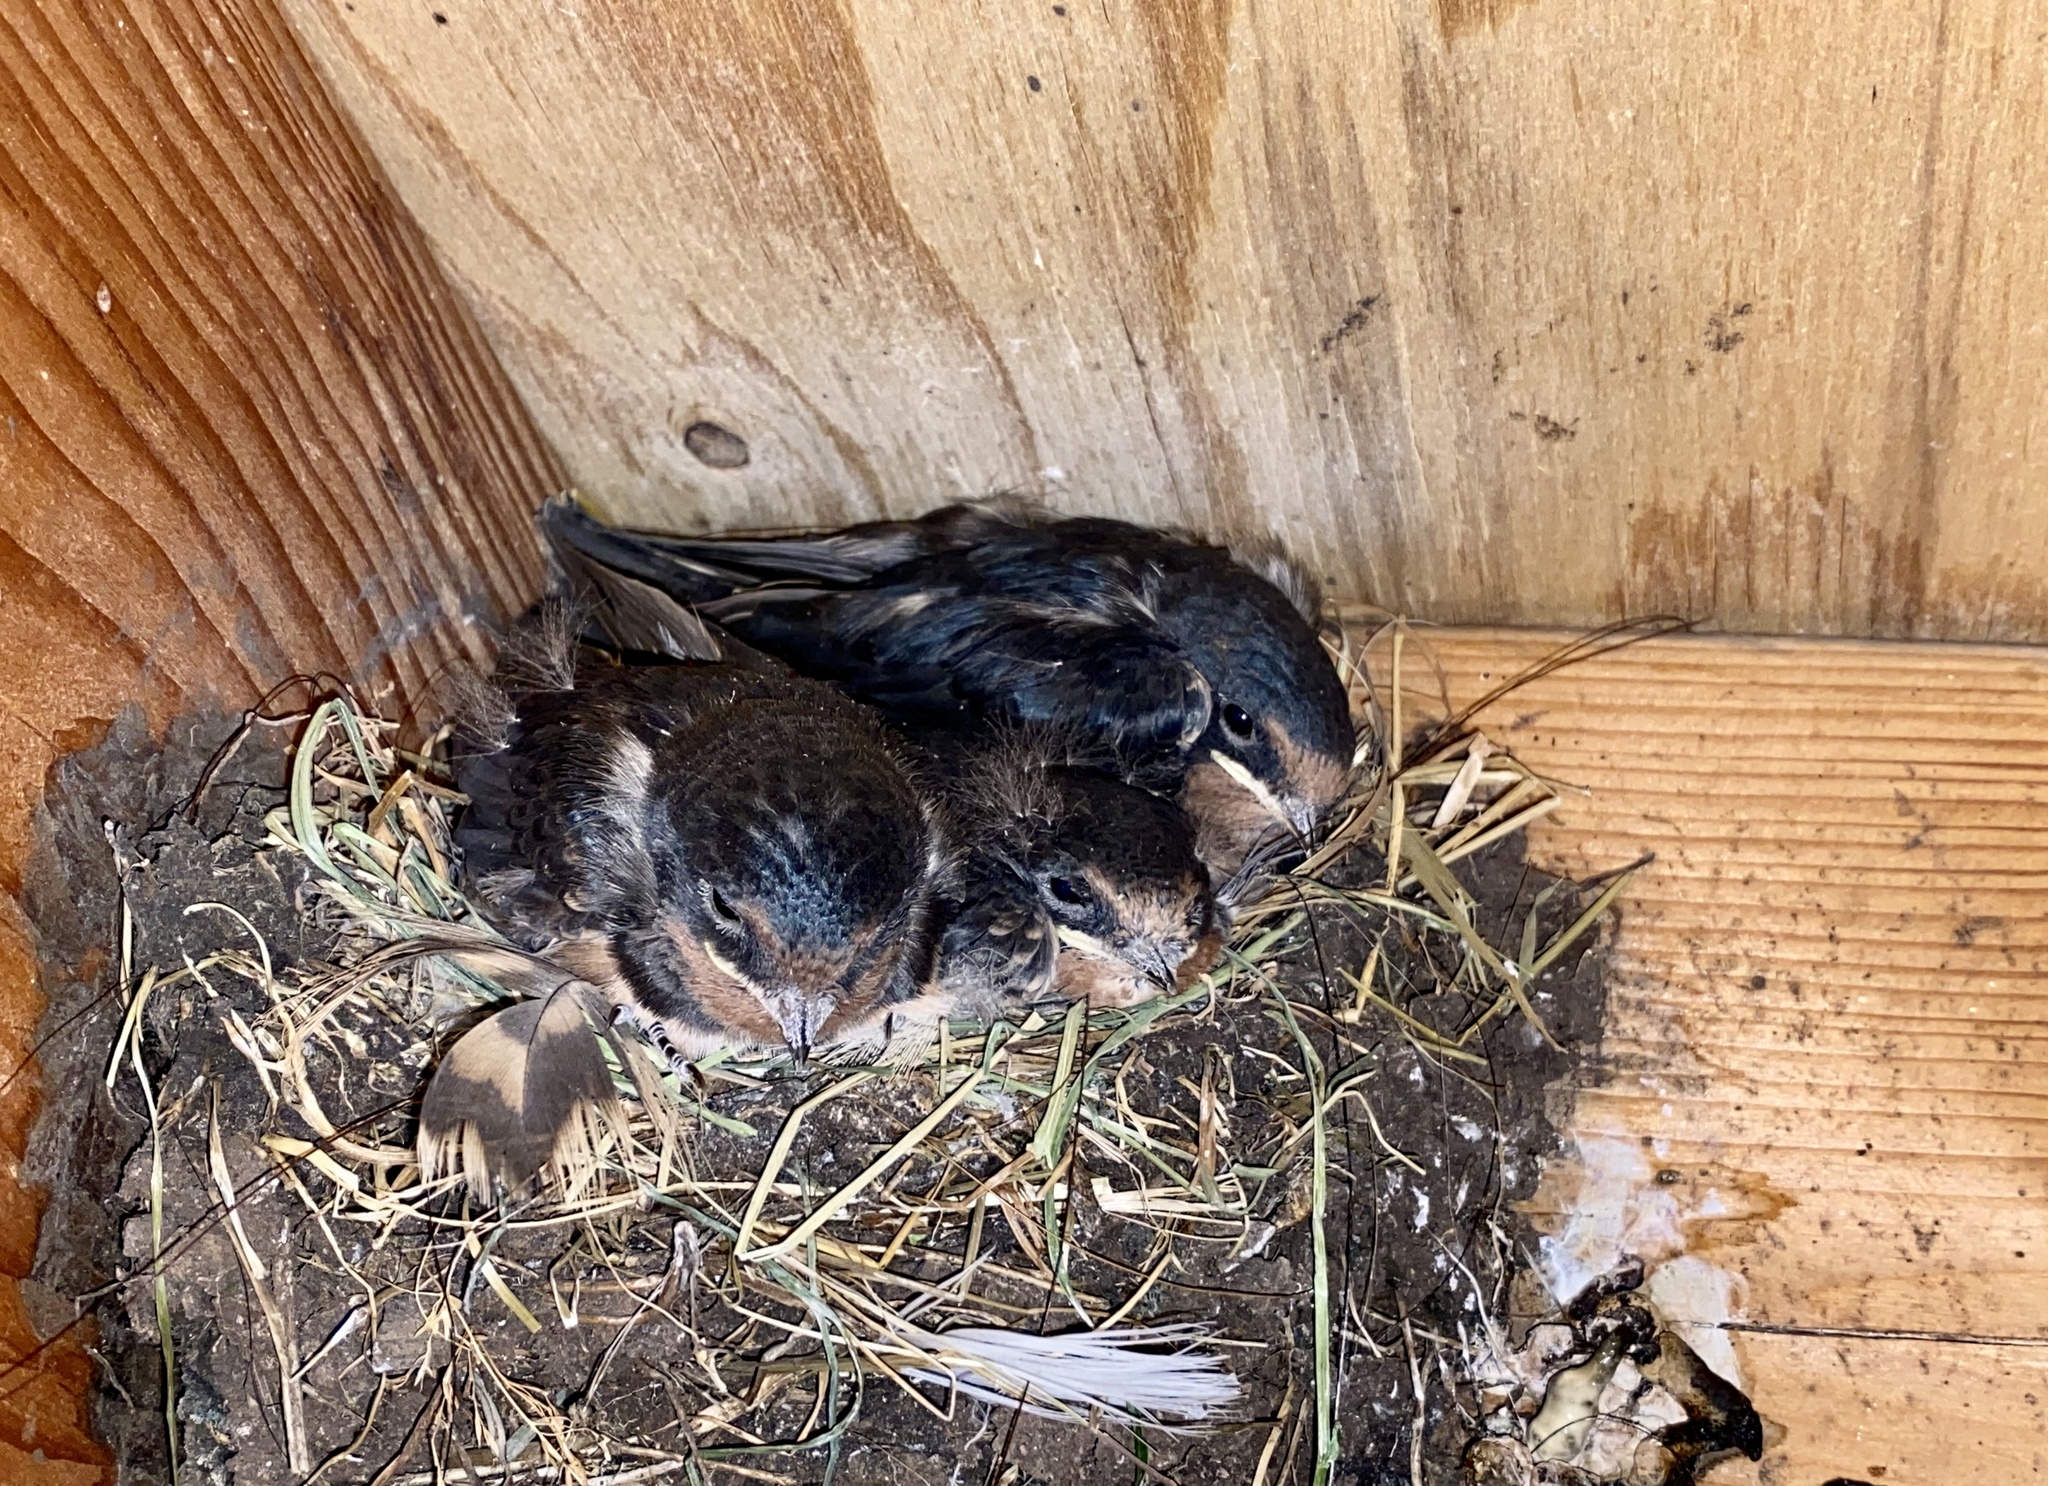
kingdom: Animalia
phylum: Chordata
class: Aves
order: Passeriformes
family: Hirundinidae
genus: Hirundo
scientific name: Hirundo rustica
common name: Barn swallow
